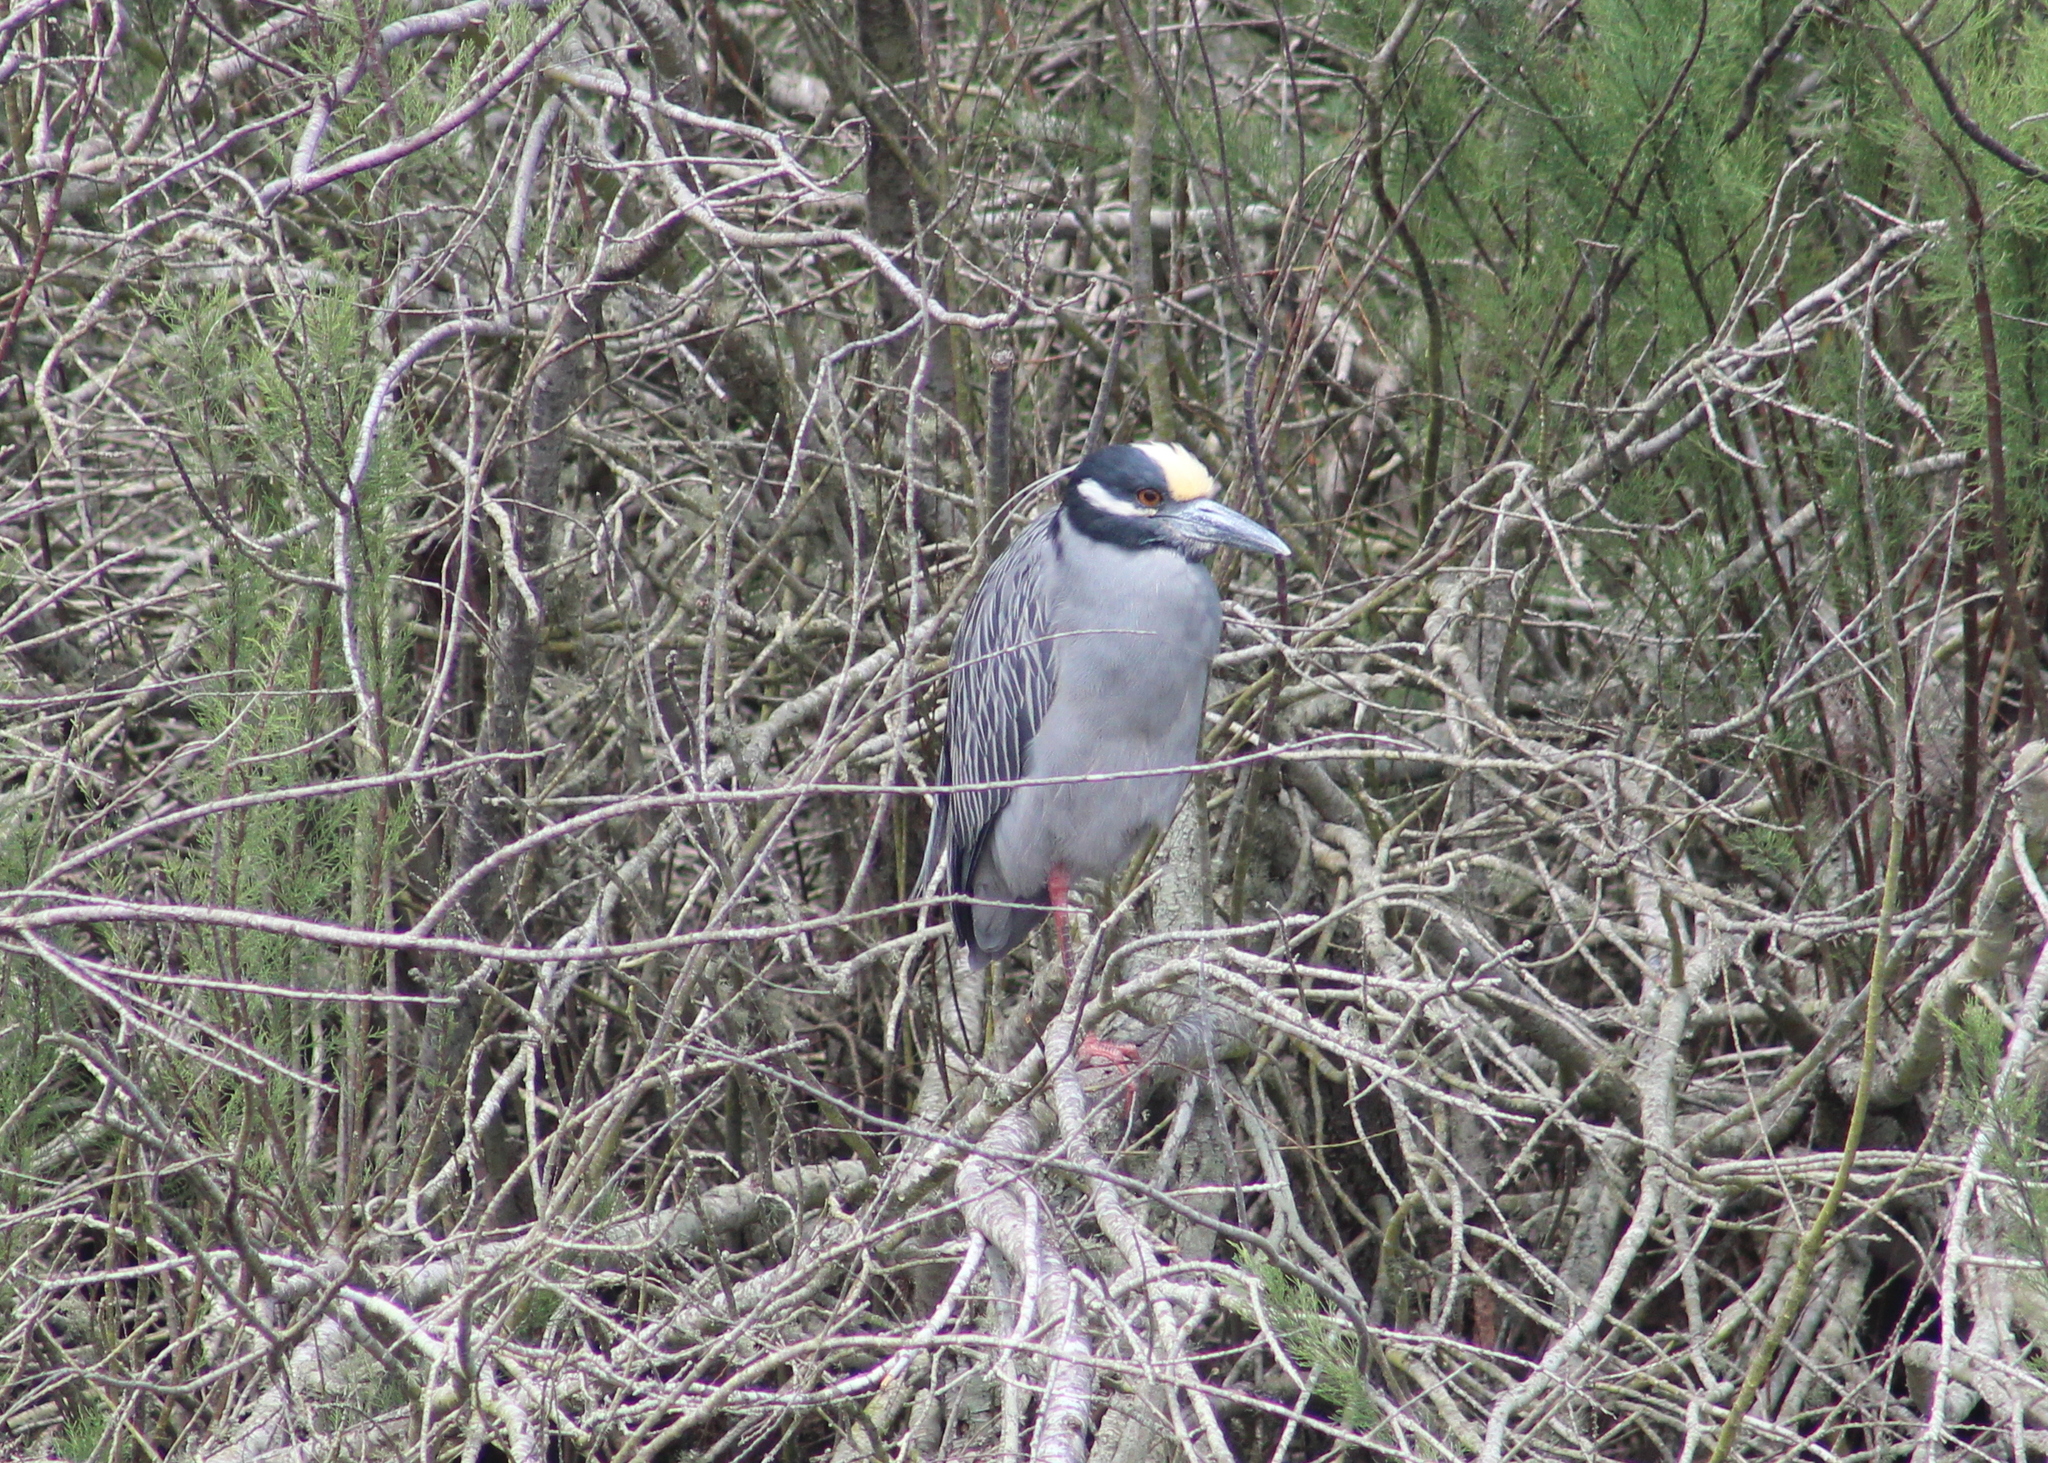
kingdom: Animalia
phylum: Chordata
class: Aves
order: Pelecaniformes
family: Ardeidae
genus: Nyctanassa
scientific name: Nyctanassa violacea
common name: Yellow-crowned night heron
